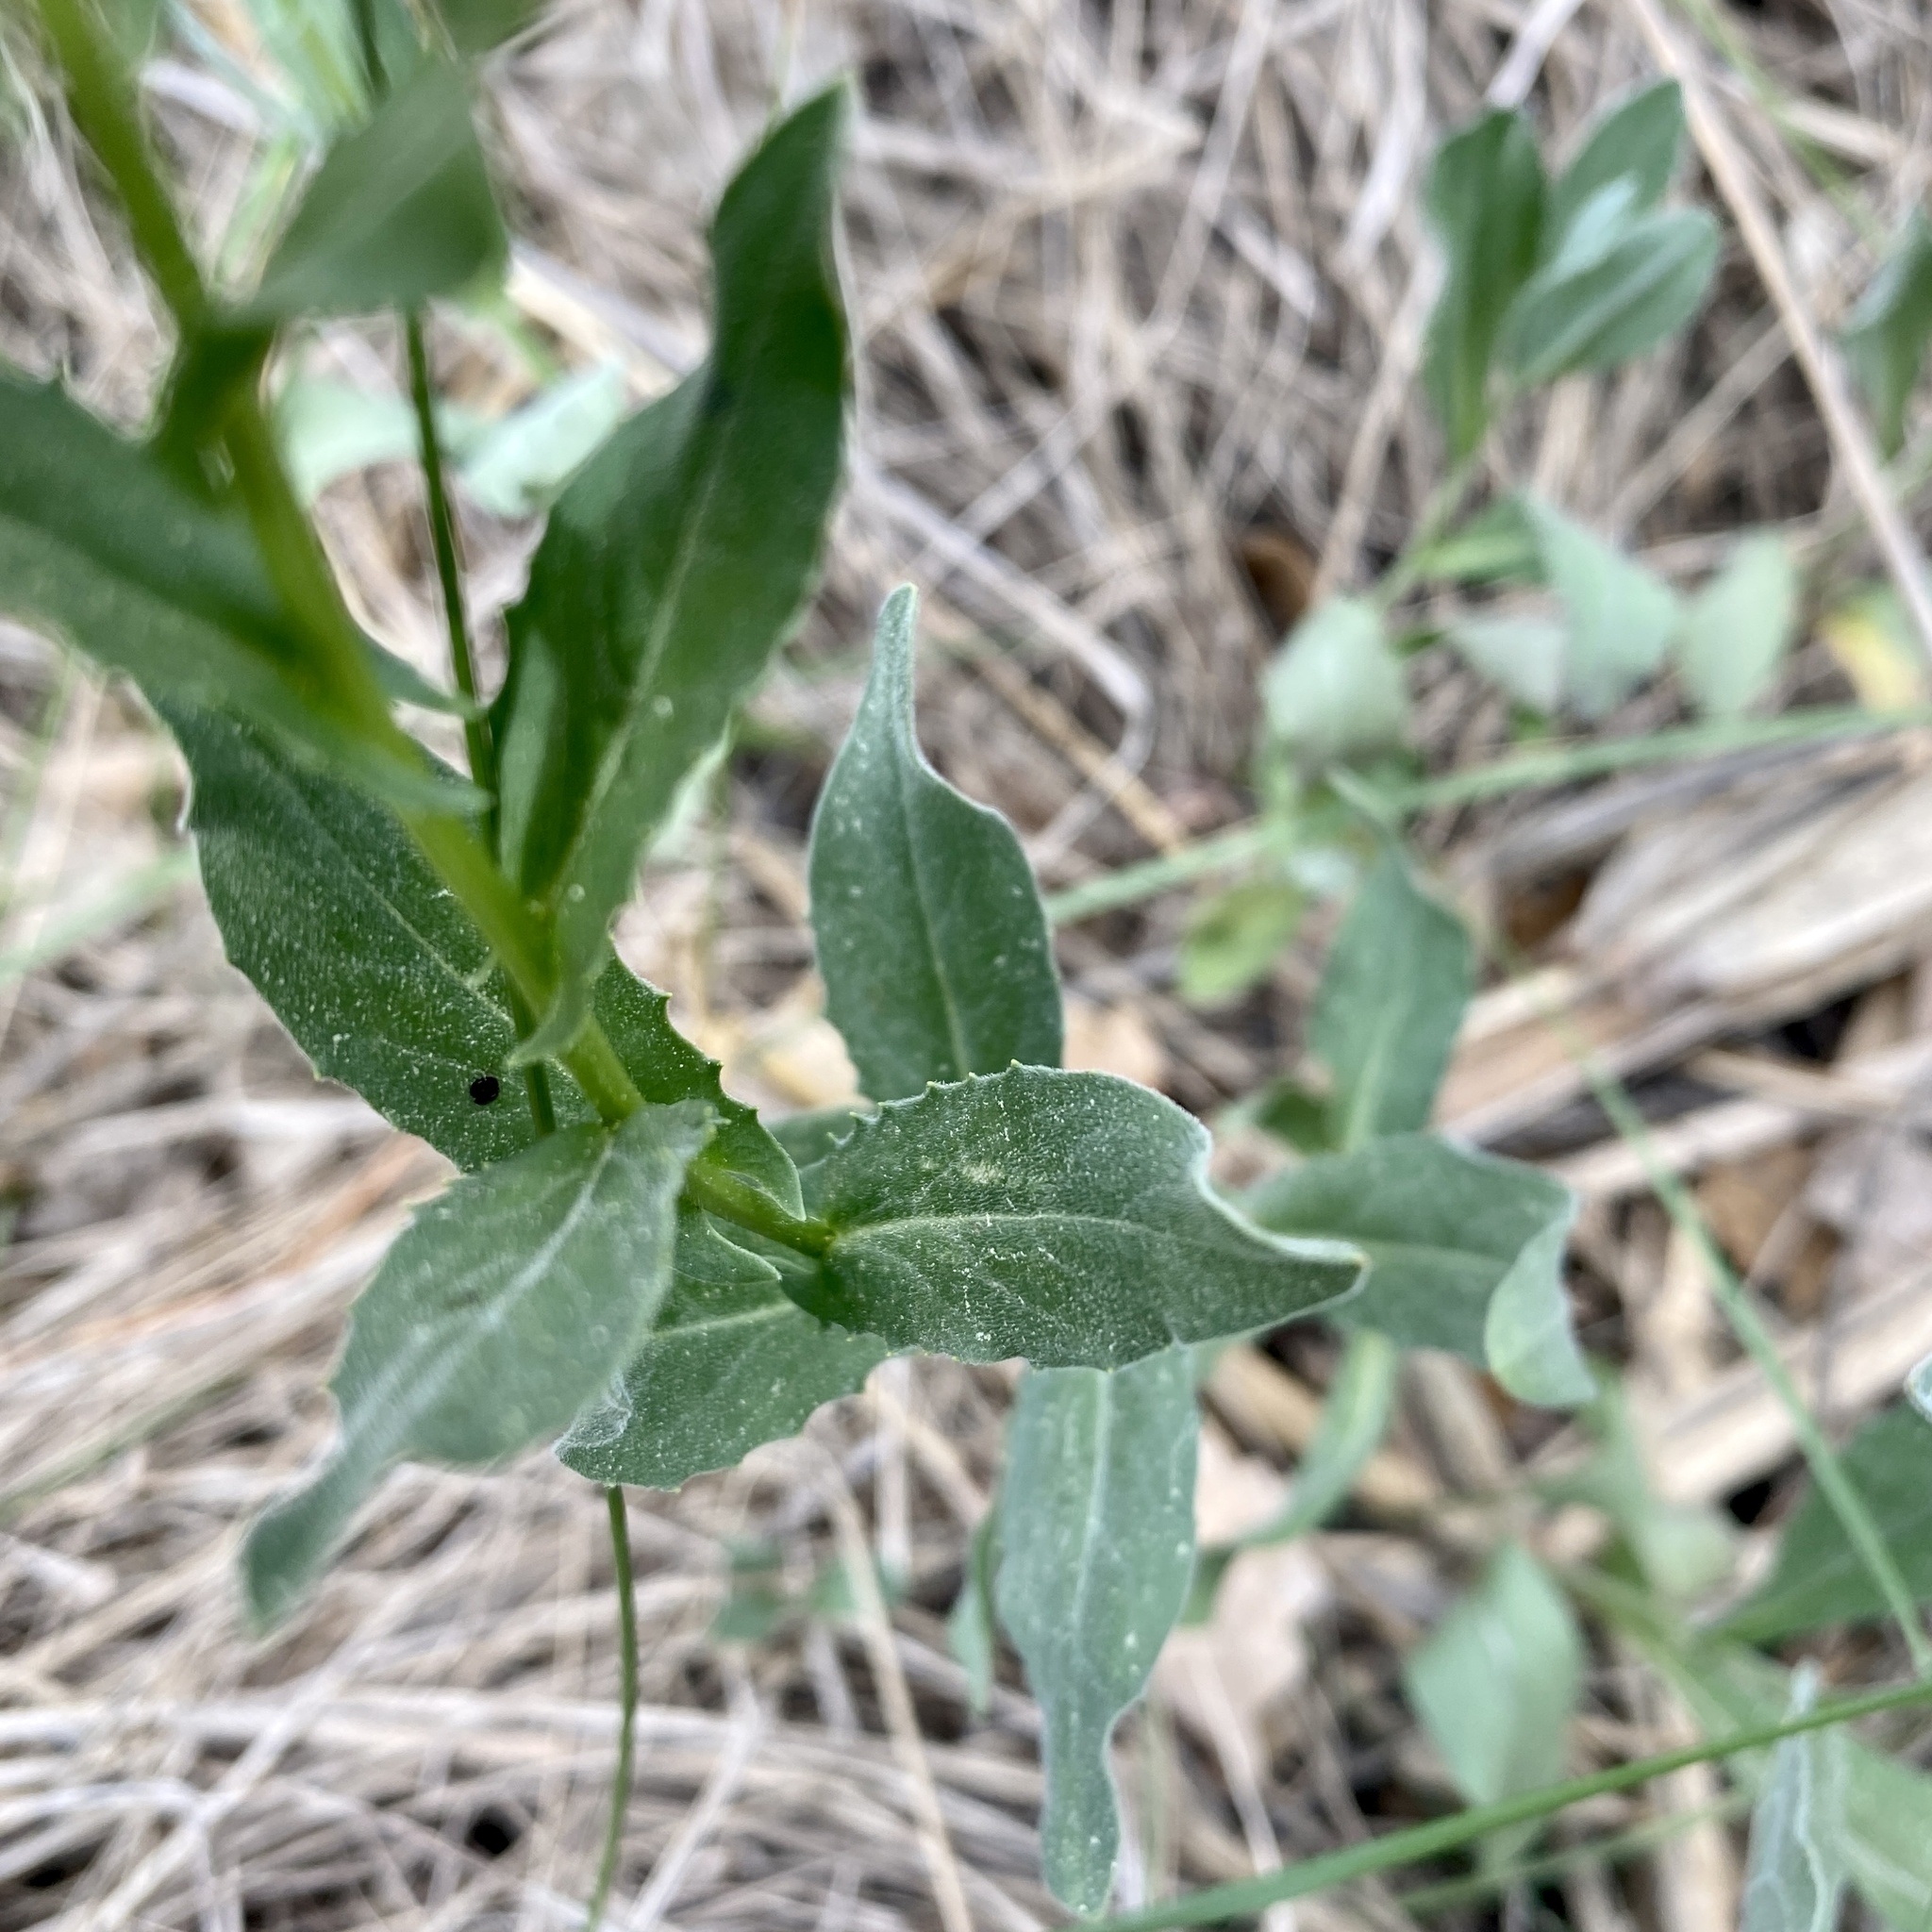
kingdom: Plantae
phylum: Tracheophyta
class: Magnoliopsida
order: Brassicales
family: Brassicaceae
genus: Lepidium
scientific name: Lepidium draba
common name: Hoary cress
